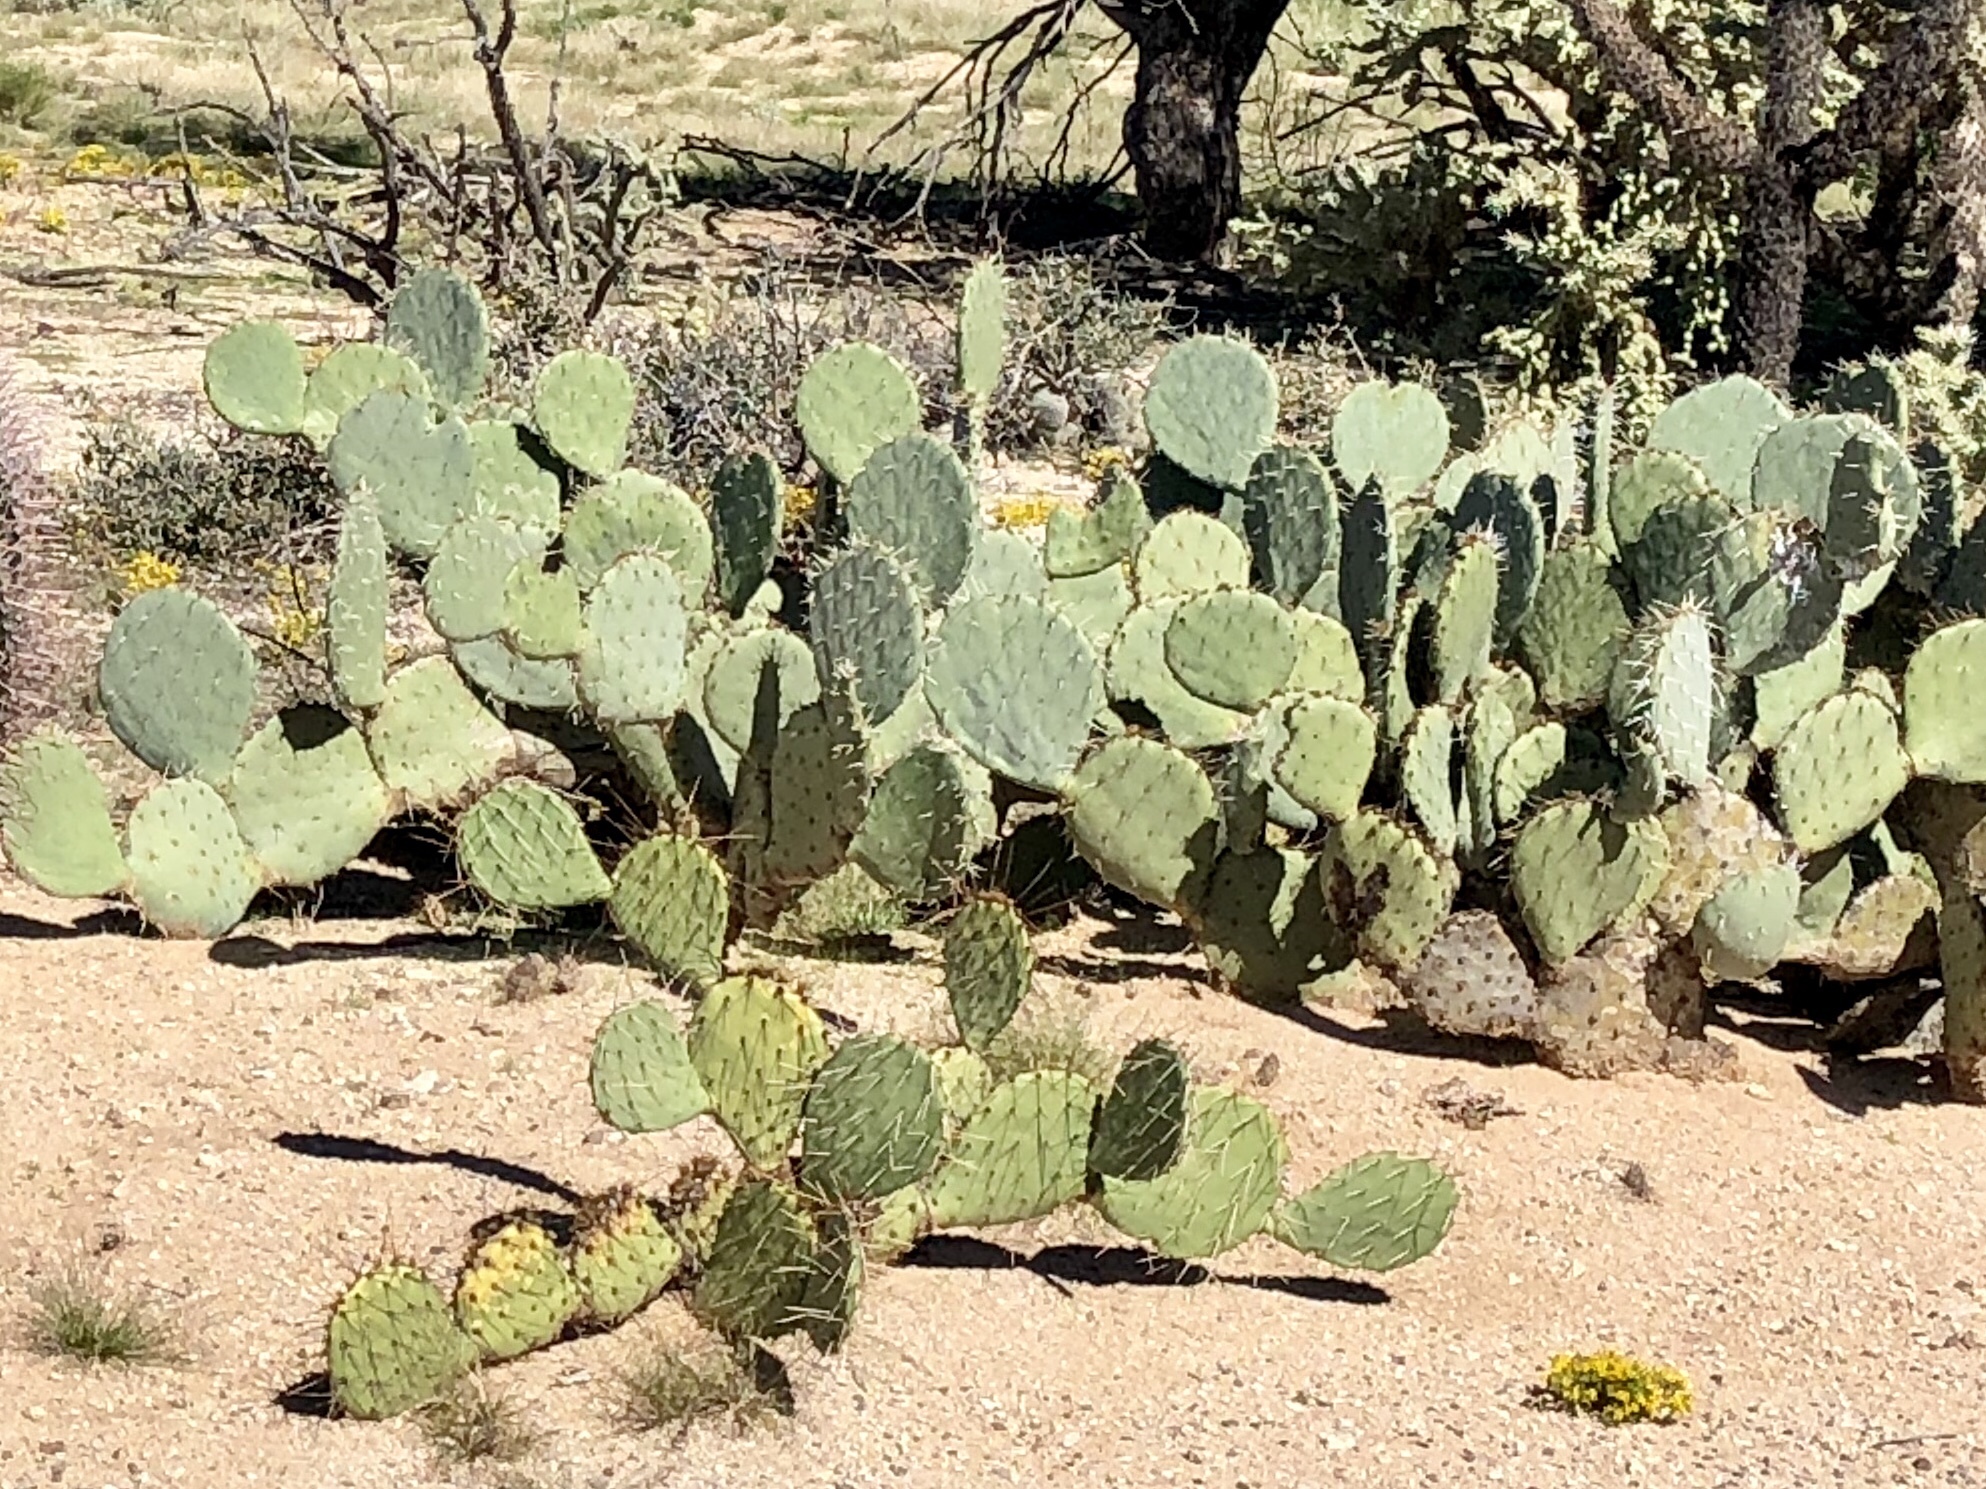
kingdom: Plantae
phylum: Tracheophyta
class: Magnoliopsida
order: Caryophyllales
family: Cactaceae
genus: Opuntia
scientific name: Opuntia engelmannii
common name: Cactus-apple
